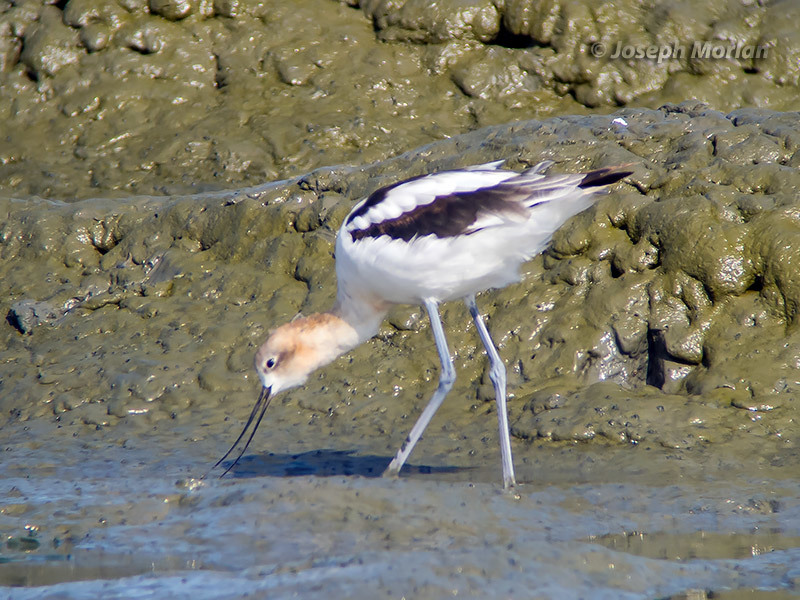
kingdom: Animalia
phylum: Chordata
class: Aves
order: Charadriiformes
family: Recurvirostridae
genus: Recurvirostra
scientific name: Recurvirostra americana
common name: American avocet
